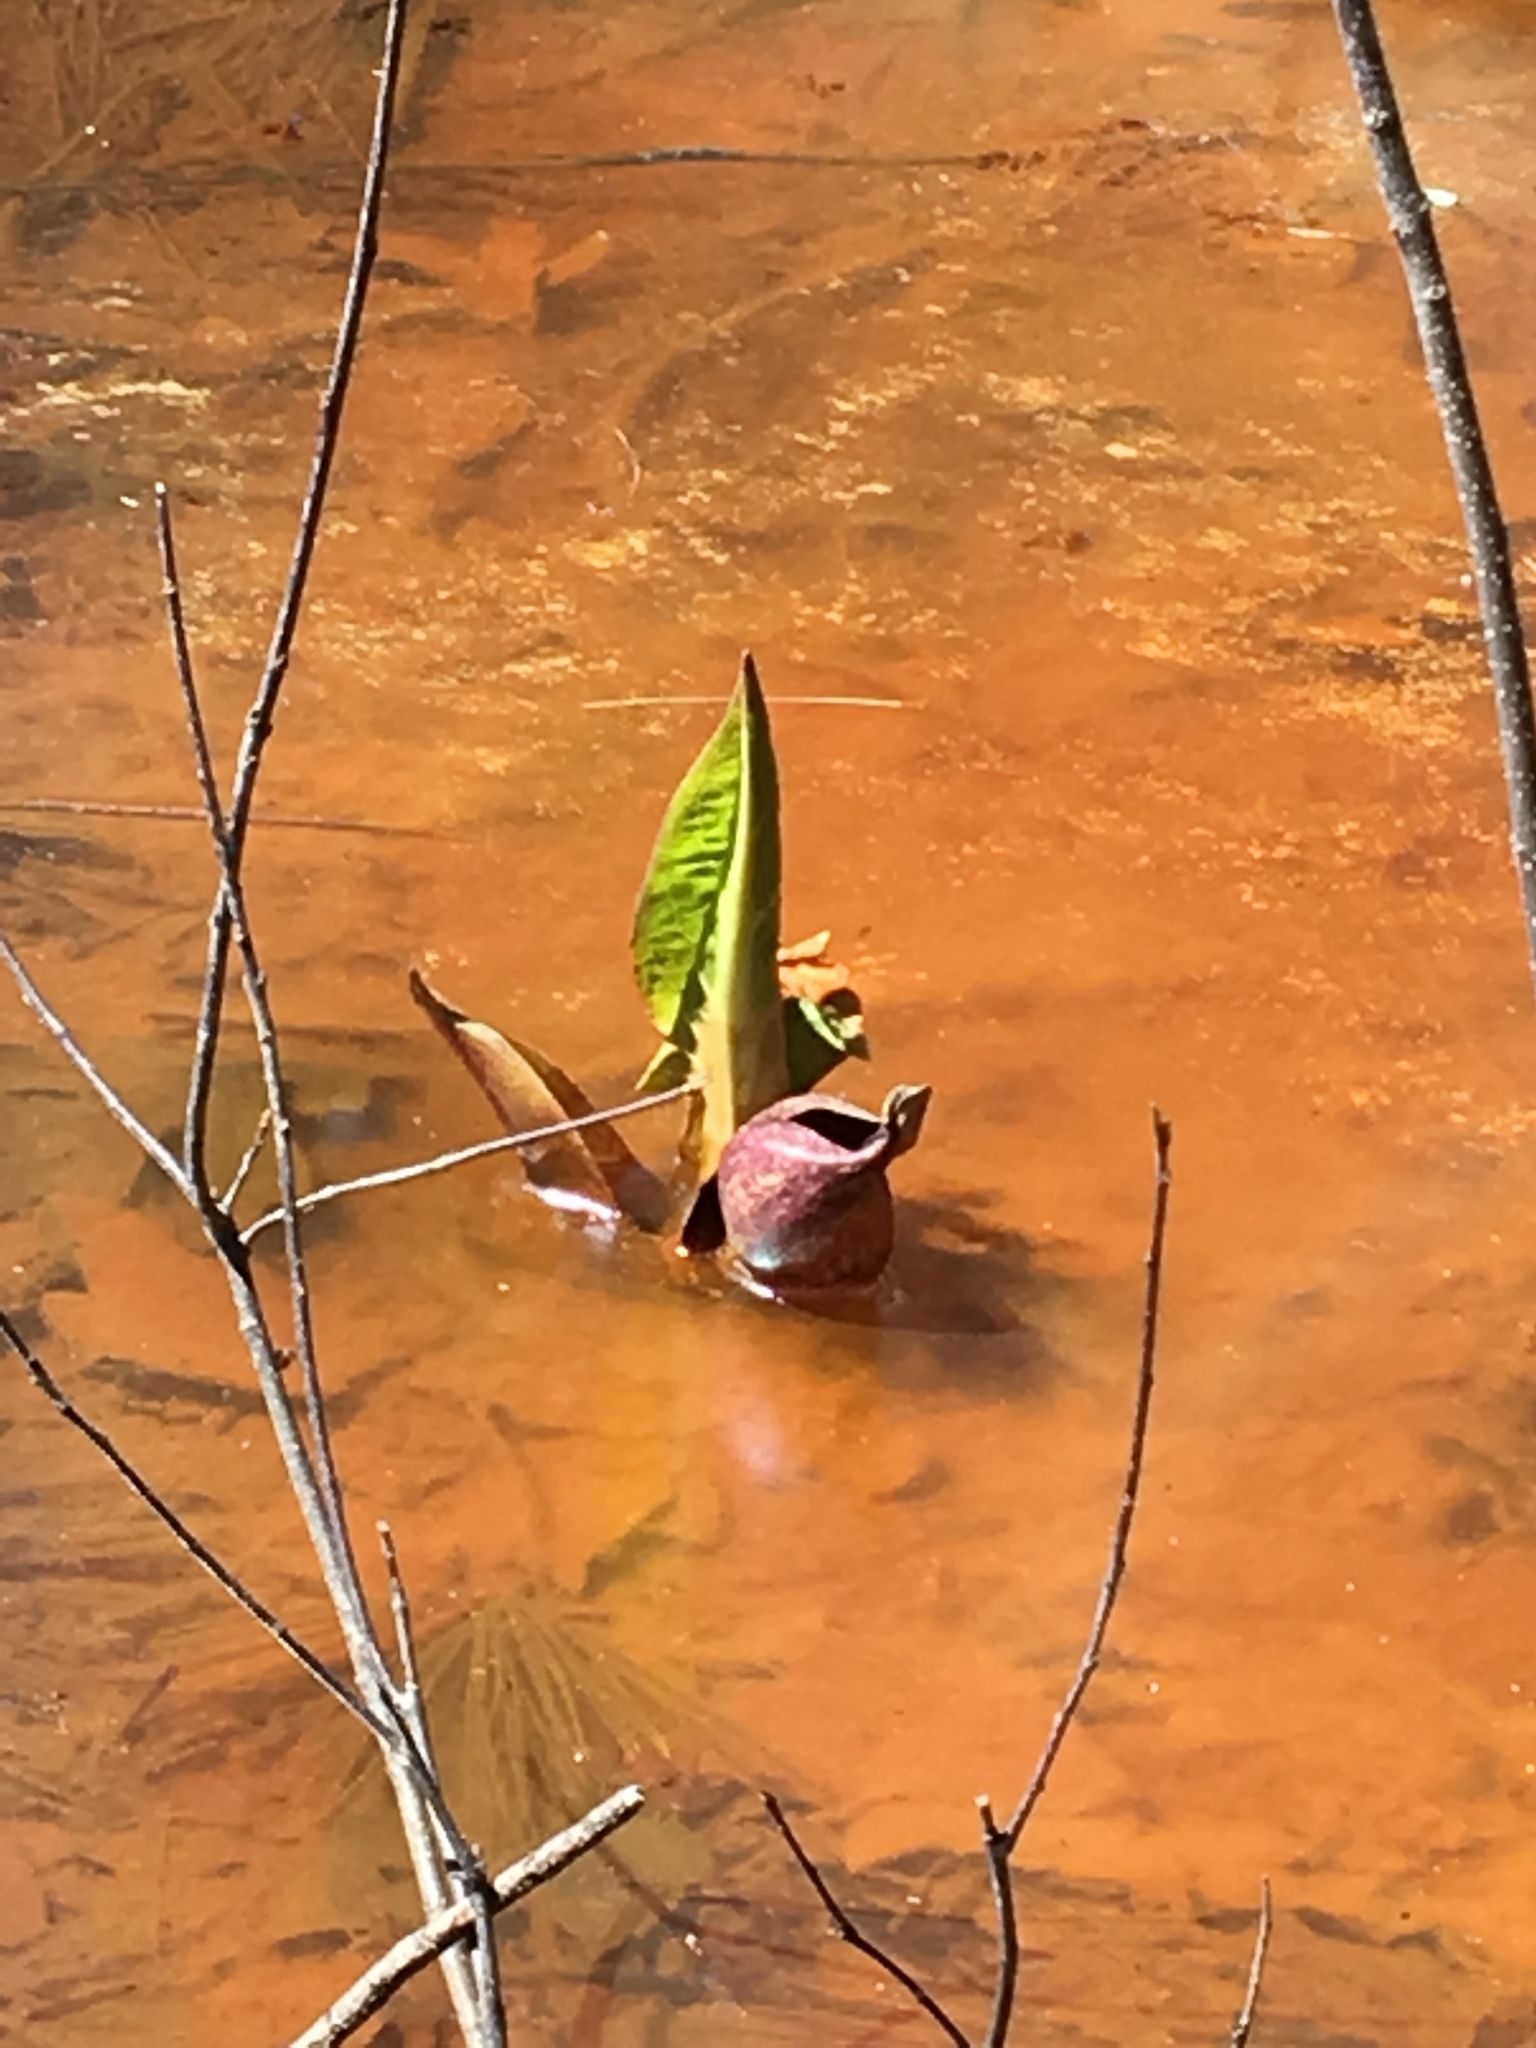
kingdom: Plantae
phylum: Tracheophyta
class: Liliopsida
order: Alismatales
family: Araceae
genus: Symplocarpus
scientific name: Symplocarpus foetidus
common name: Eastern skunk cabbage
